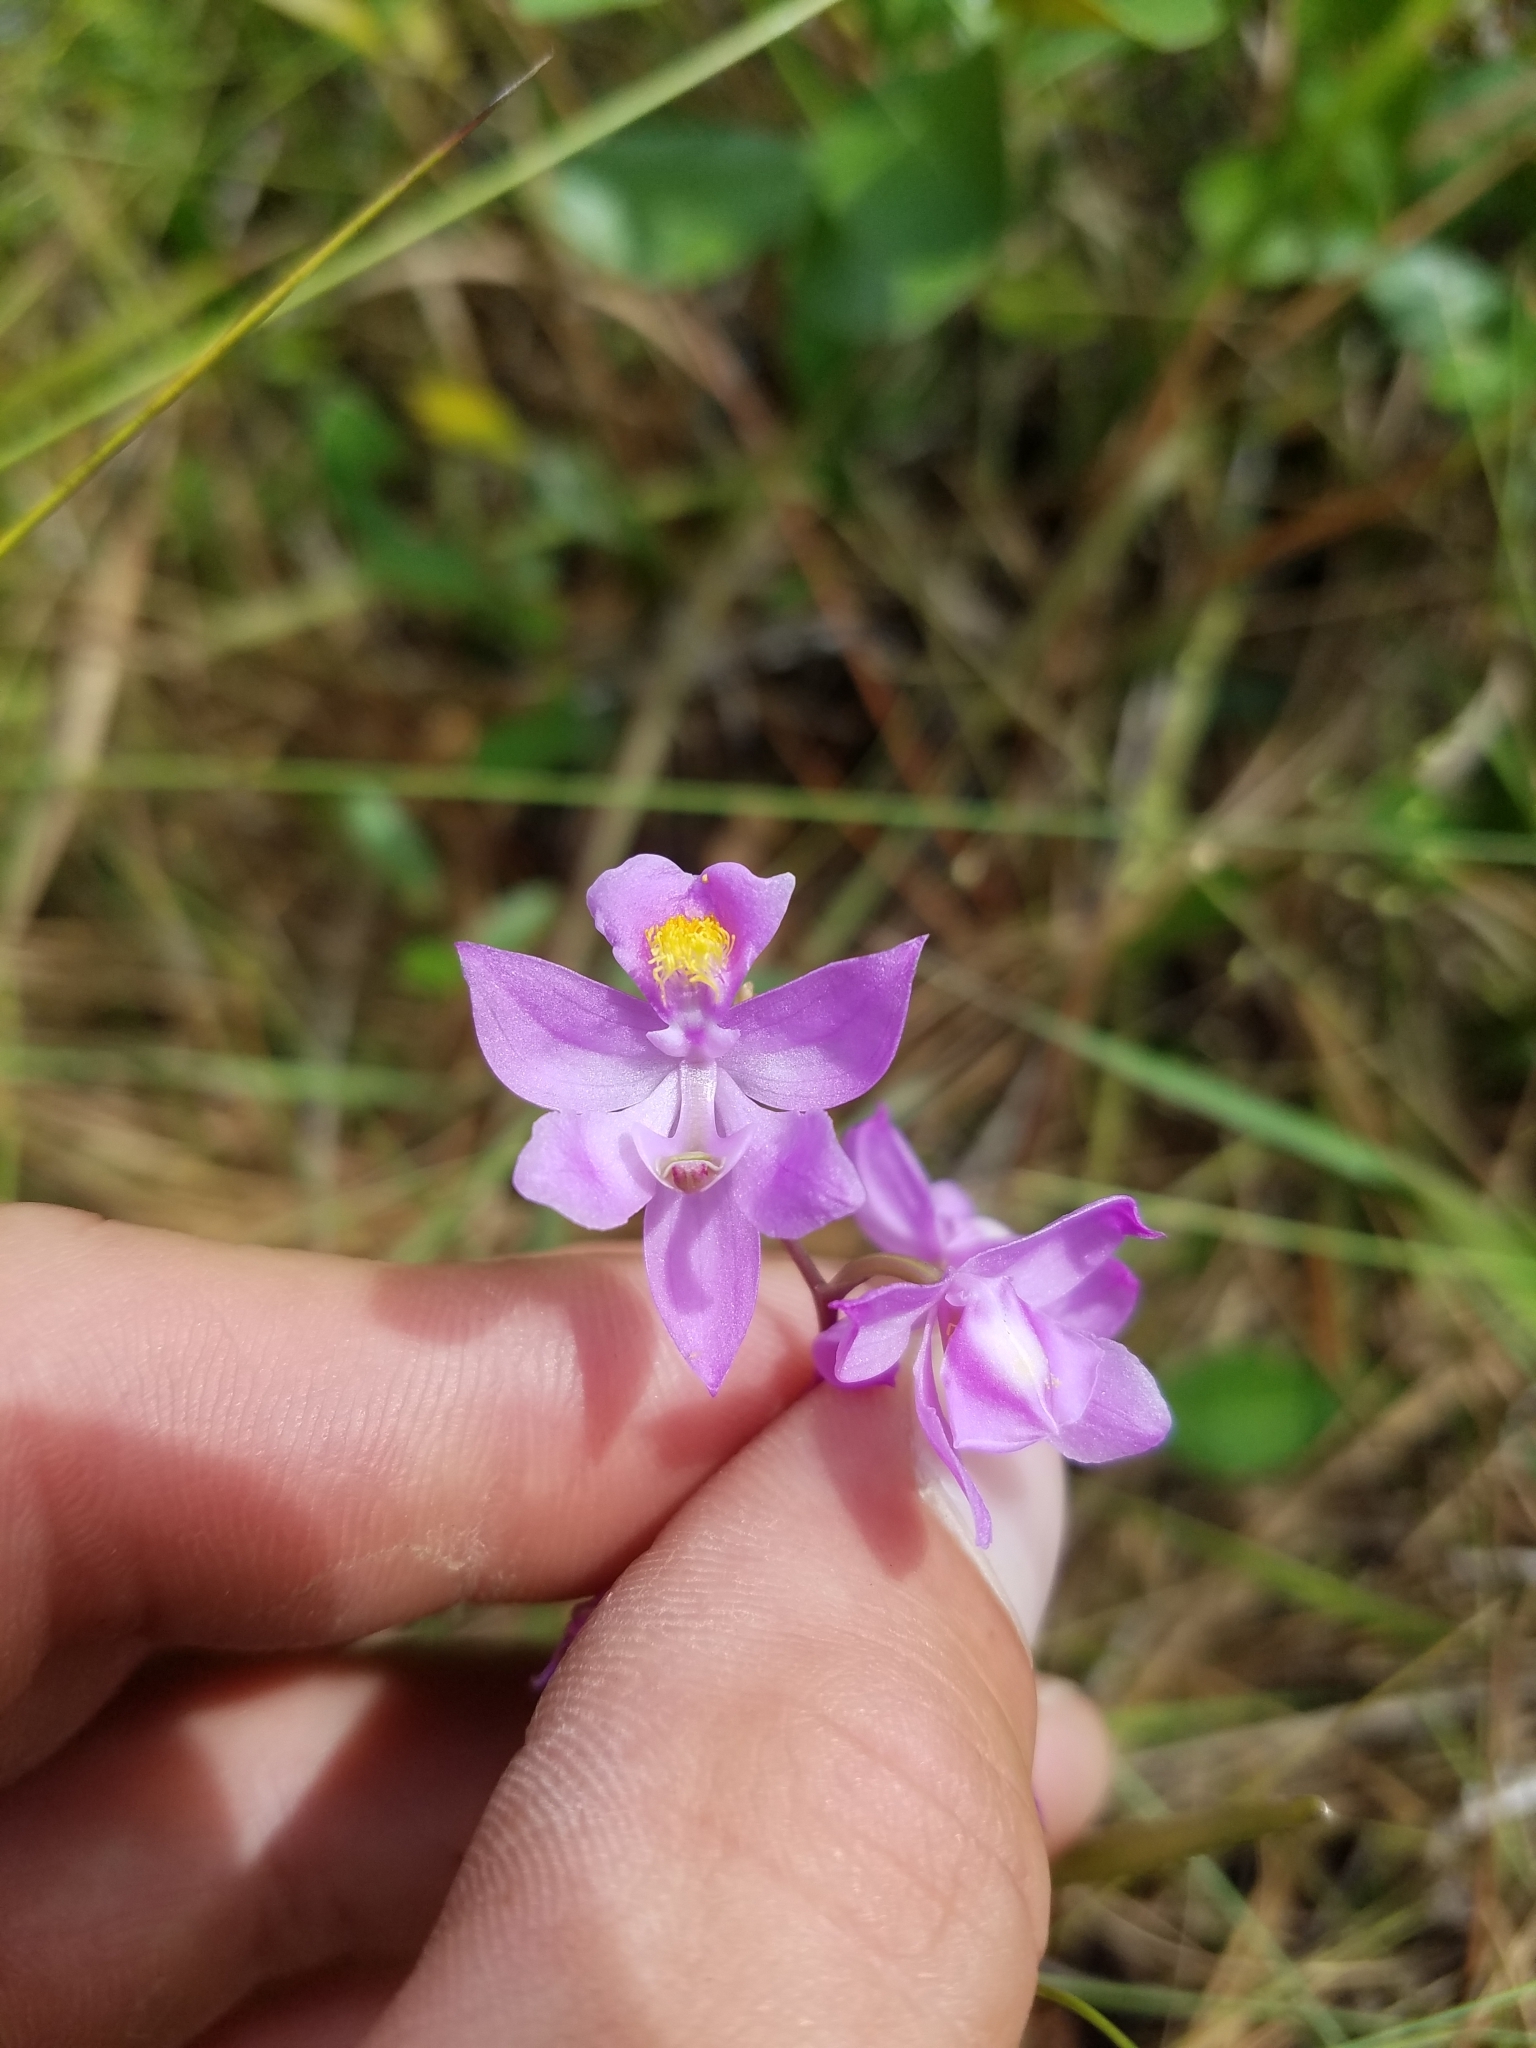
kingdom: Plantae
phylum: Tracheophyta
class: Liliopsida
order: Asparagales
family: Orchidaceae
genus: Calopogon
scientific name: Calopogon multiflorus
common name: Many-flowered grass-pink orchid
